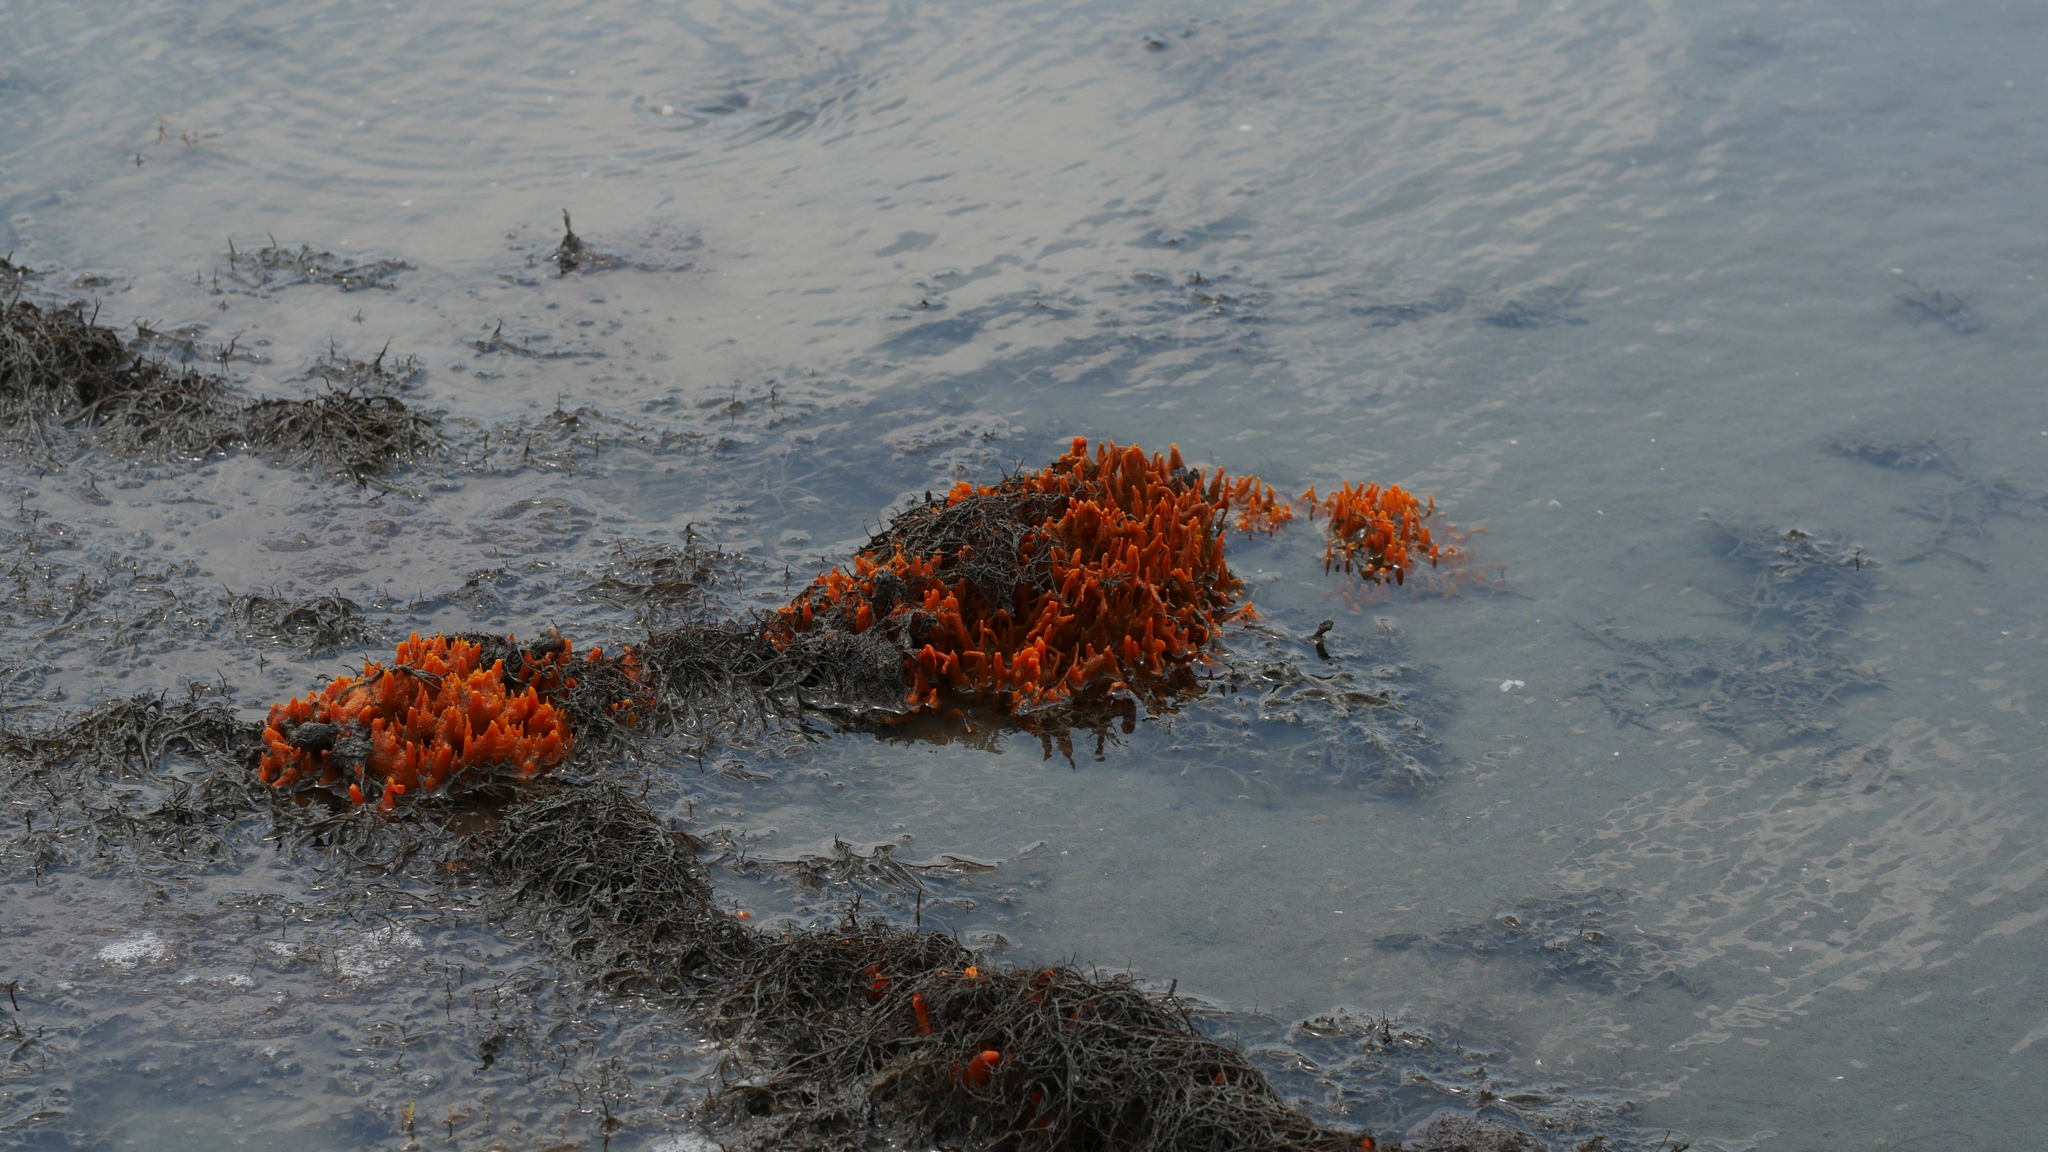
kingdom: Animalia
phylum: Porifera
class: Demospongiae
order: Suberitida
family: Halichondriidae
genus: Hymeniacidon
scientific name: Hymeniacidon heliophila
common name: Diurnal horny sponge
